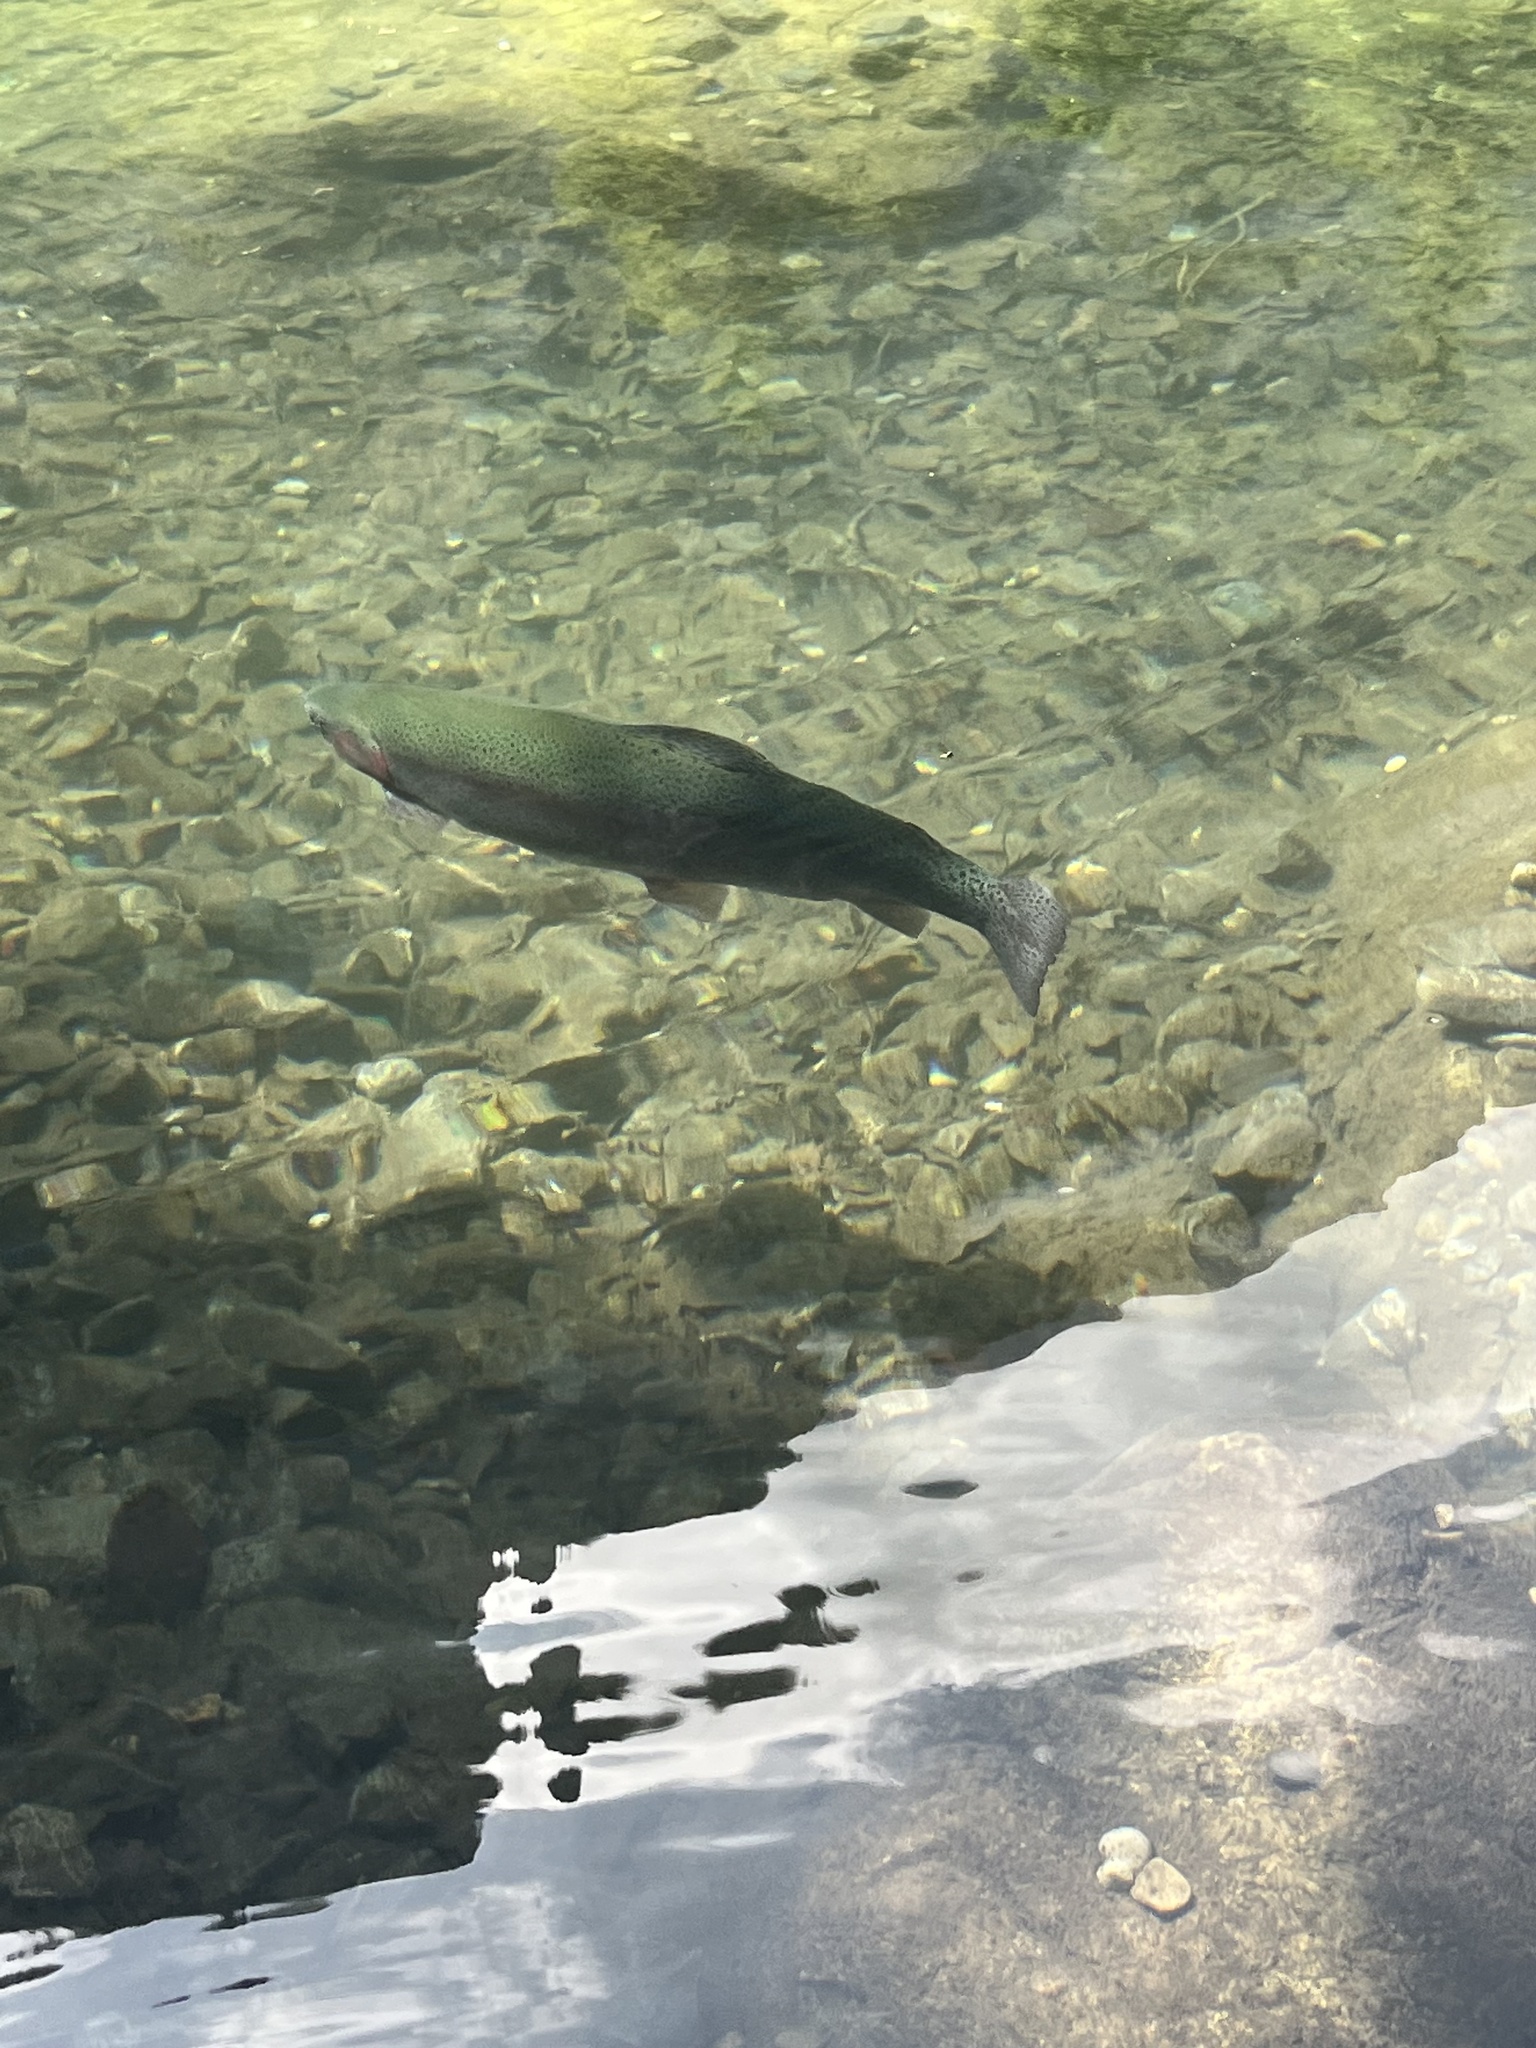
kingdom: Animalia
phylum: Chordata
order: Salmoniformes
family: Salmonidae
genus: Oncorhynchus
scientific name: Oncorhynchus mykiss
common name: Rainbow trout
